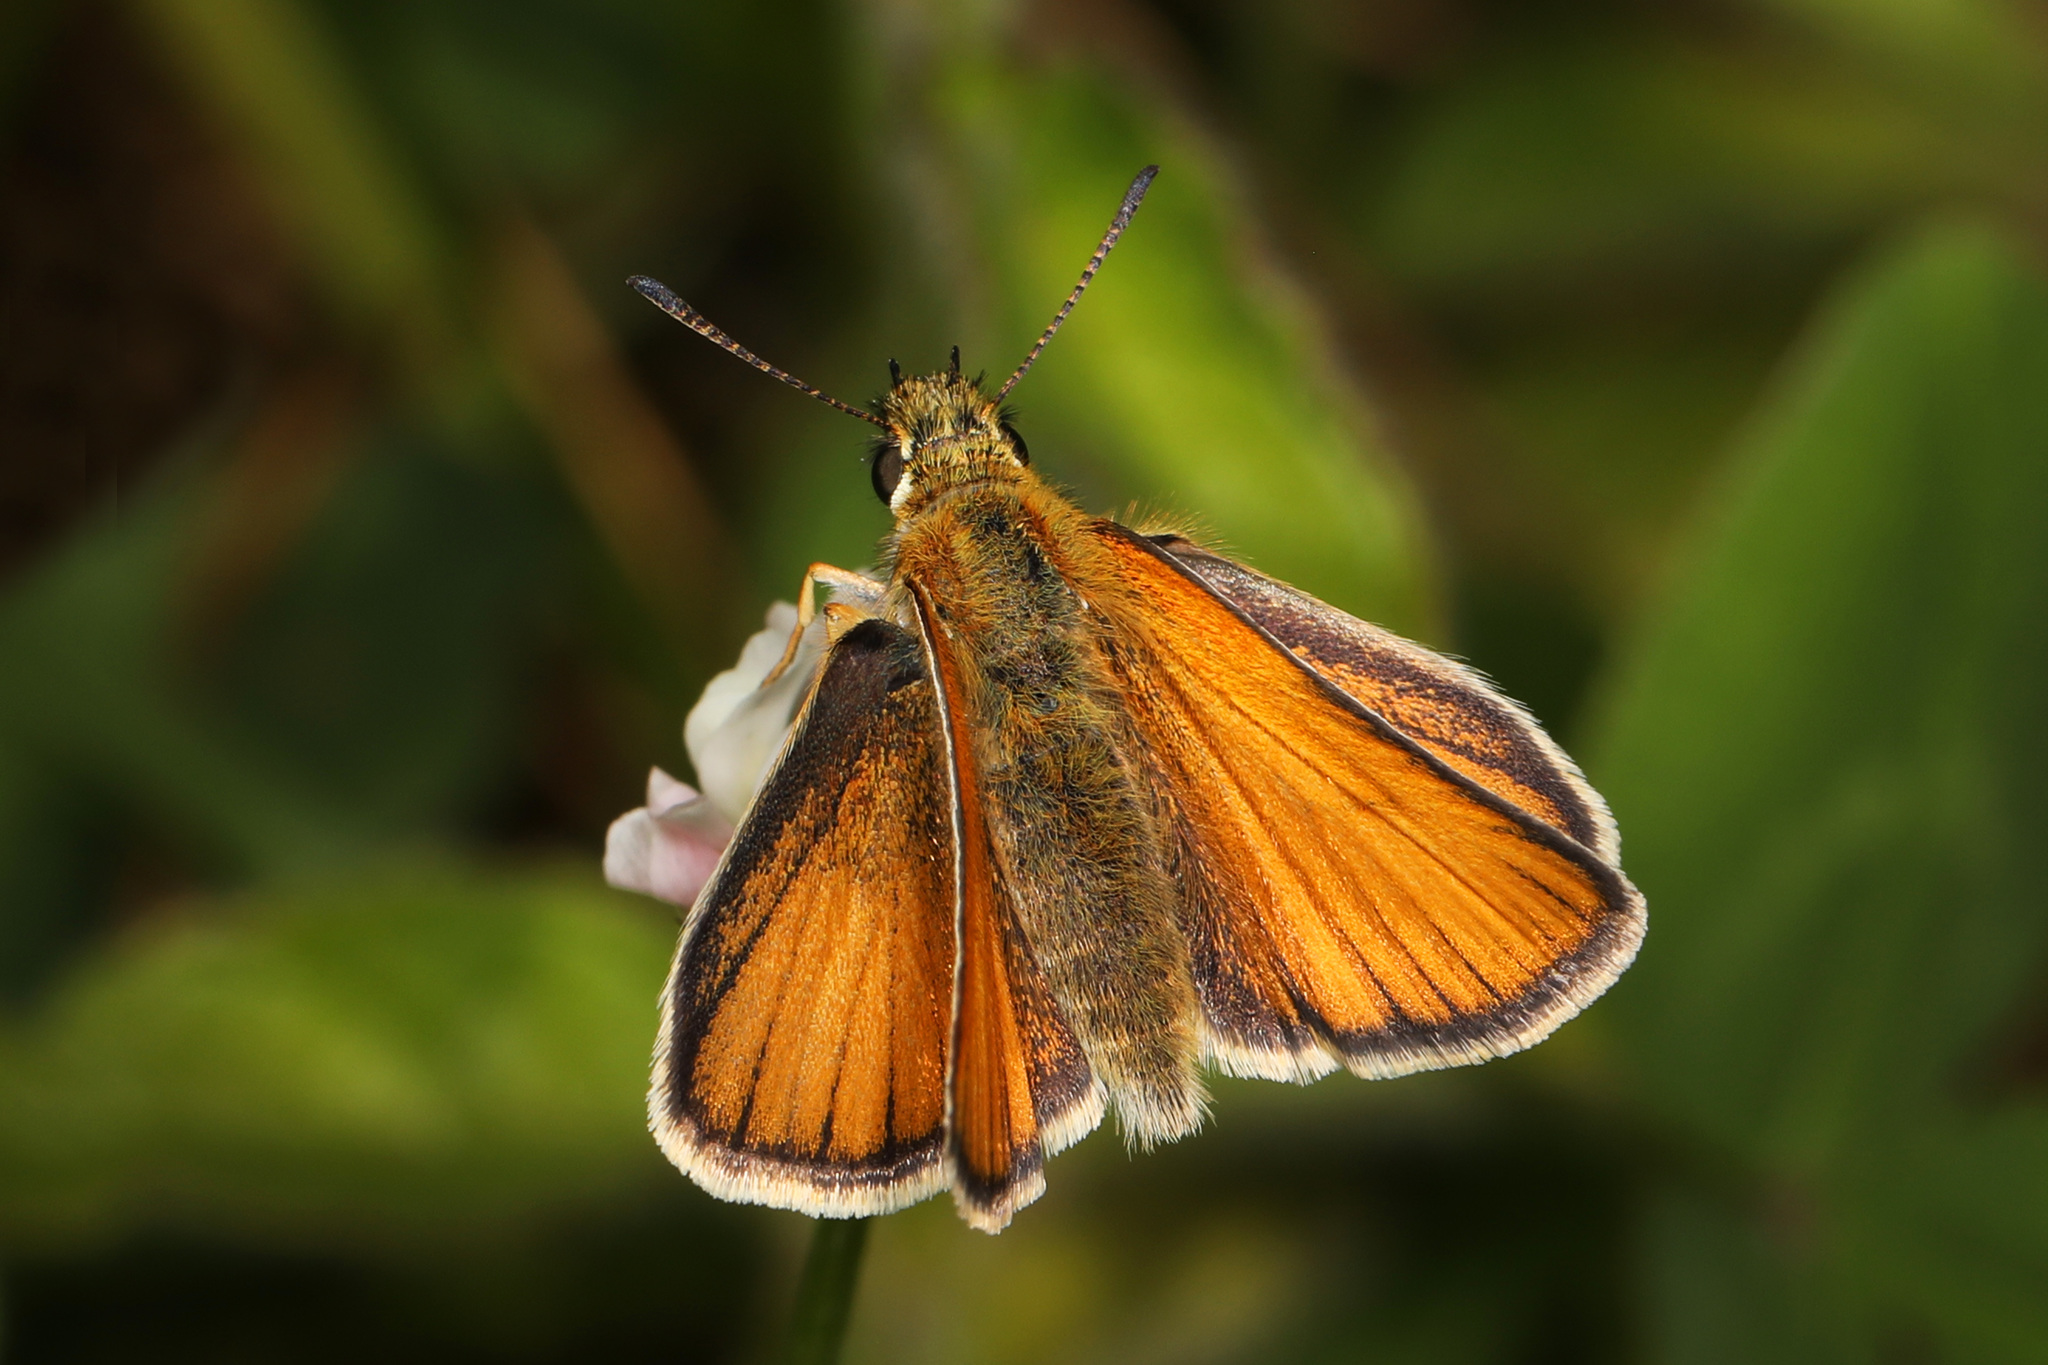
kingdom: Animalia
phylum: Arthropoda
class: Insecta
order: Lepidoptera
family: Hesperiidae
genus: Thymelicus
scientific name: Thymelicus lineola
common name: Essex skipper
